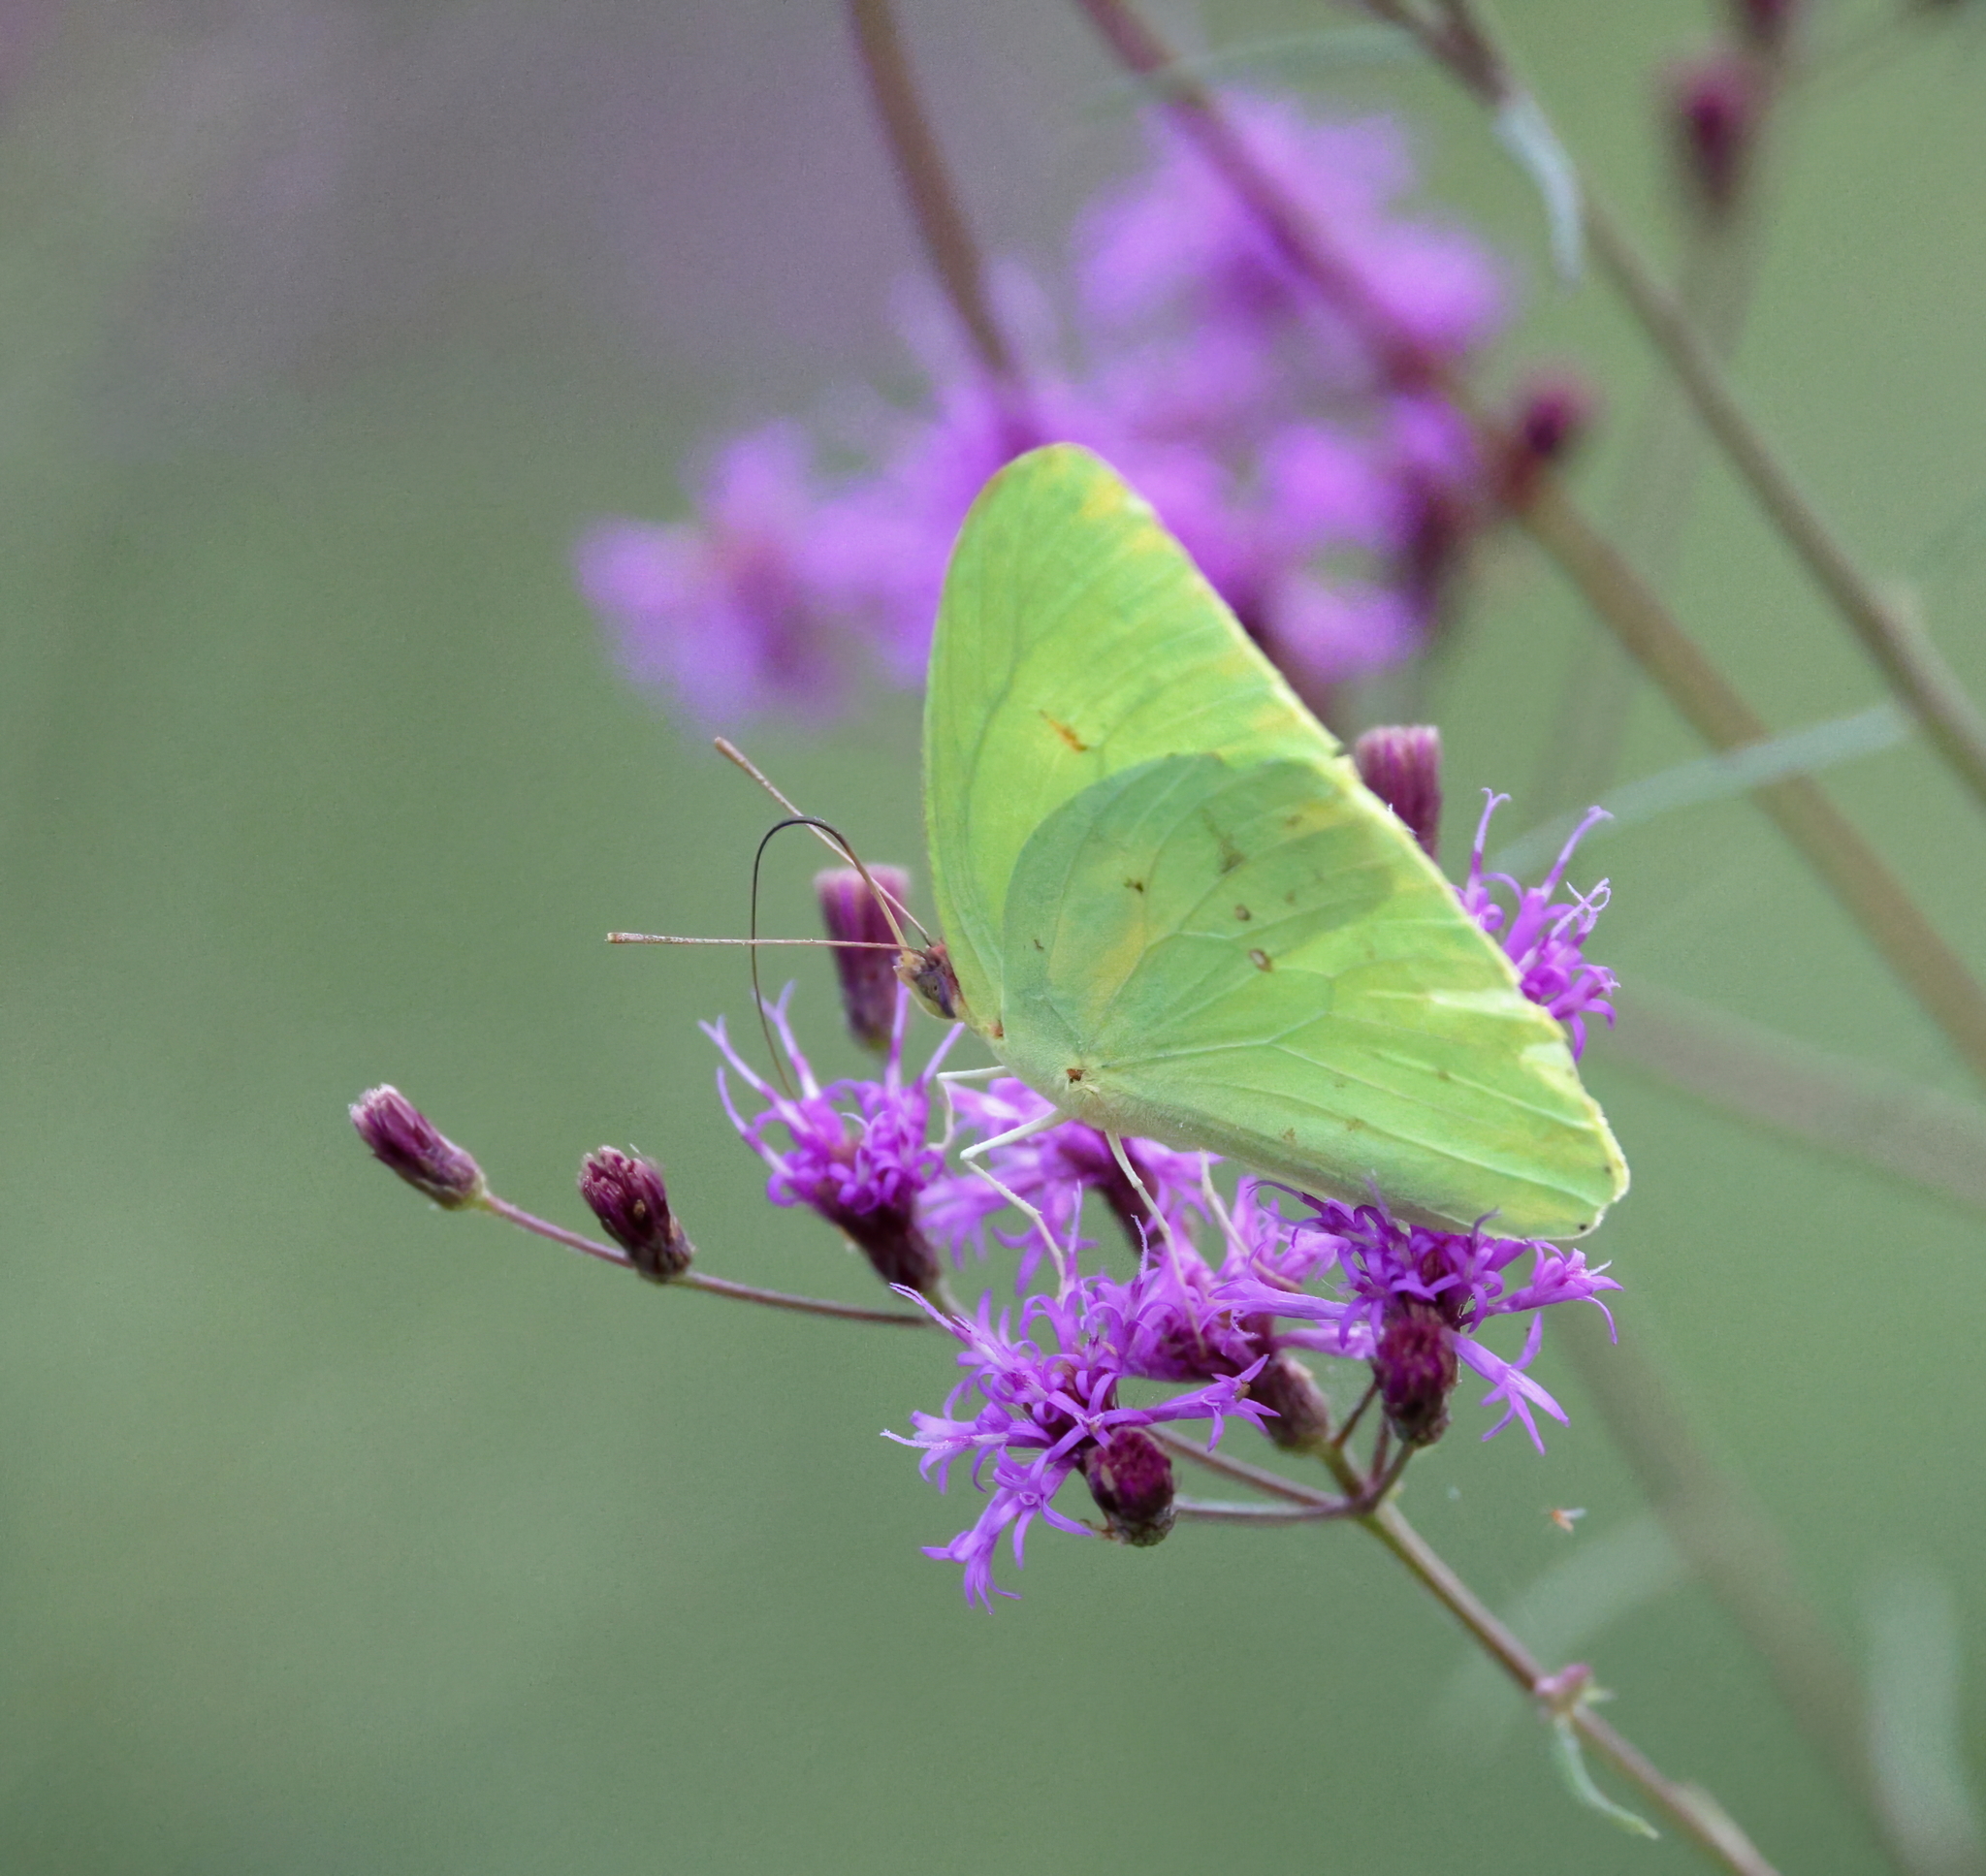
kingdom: Animalia
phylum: Arthropoda
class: Insecta
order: Lepidoptera
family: Pieridae
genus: Phoebis
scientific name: Phoebis sennae
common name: Cloudless sulphur
